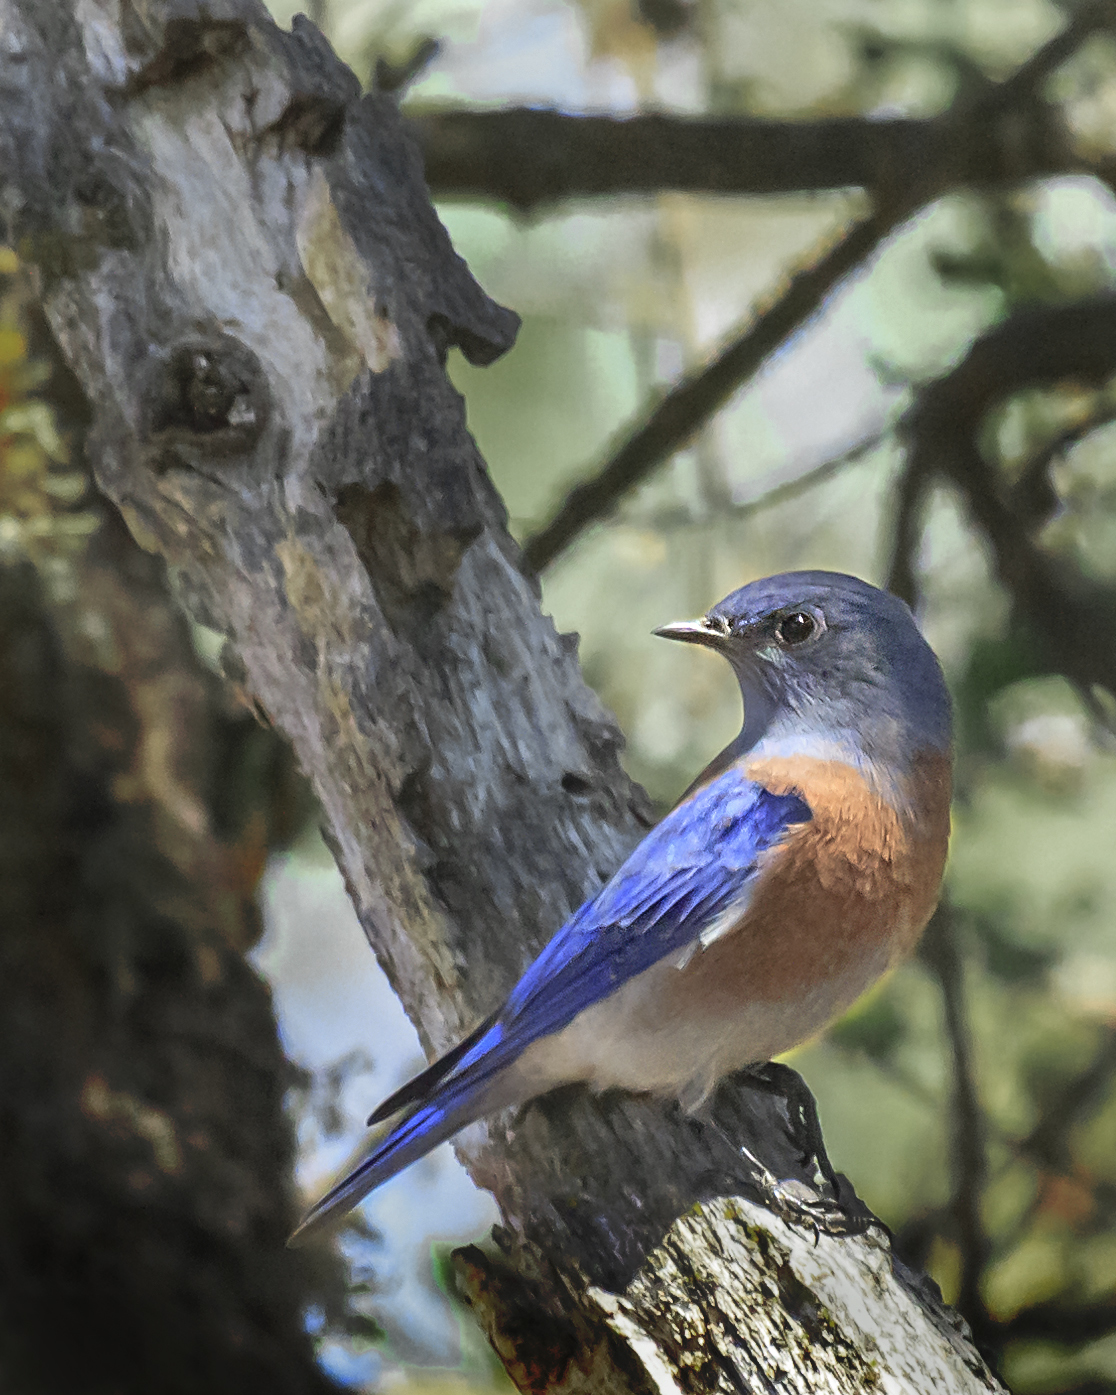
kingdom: Animalia
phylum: Chordata
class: Aves
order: Passeriformes
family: Turdidae
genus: Sialia
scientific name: Sialia mexicana
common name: Western bluebird
